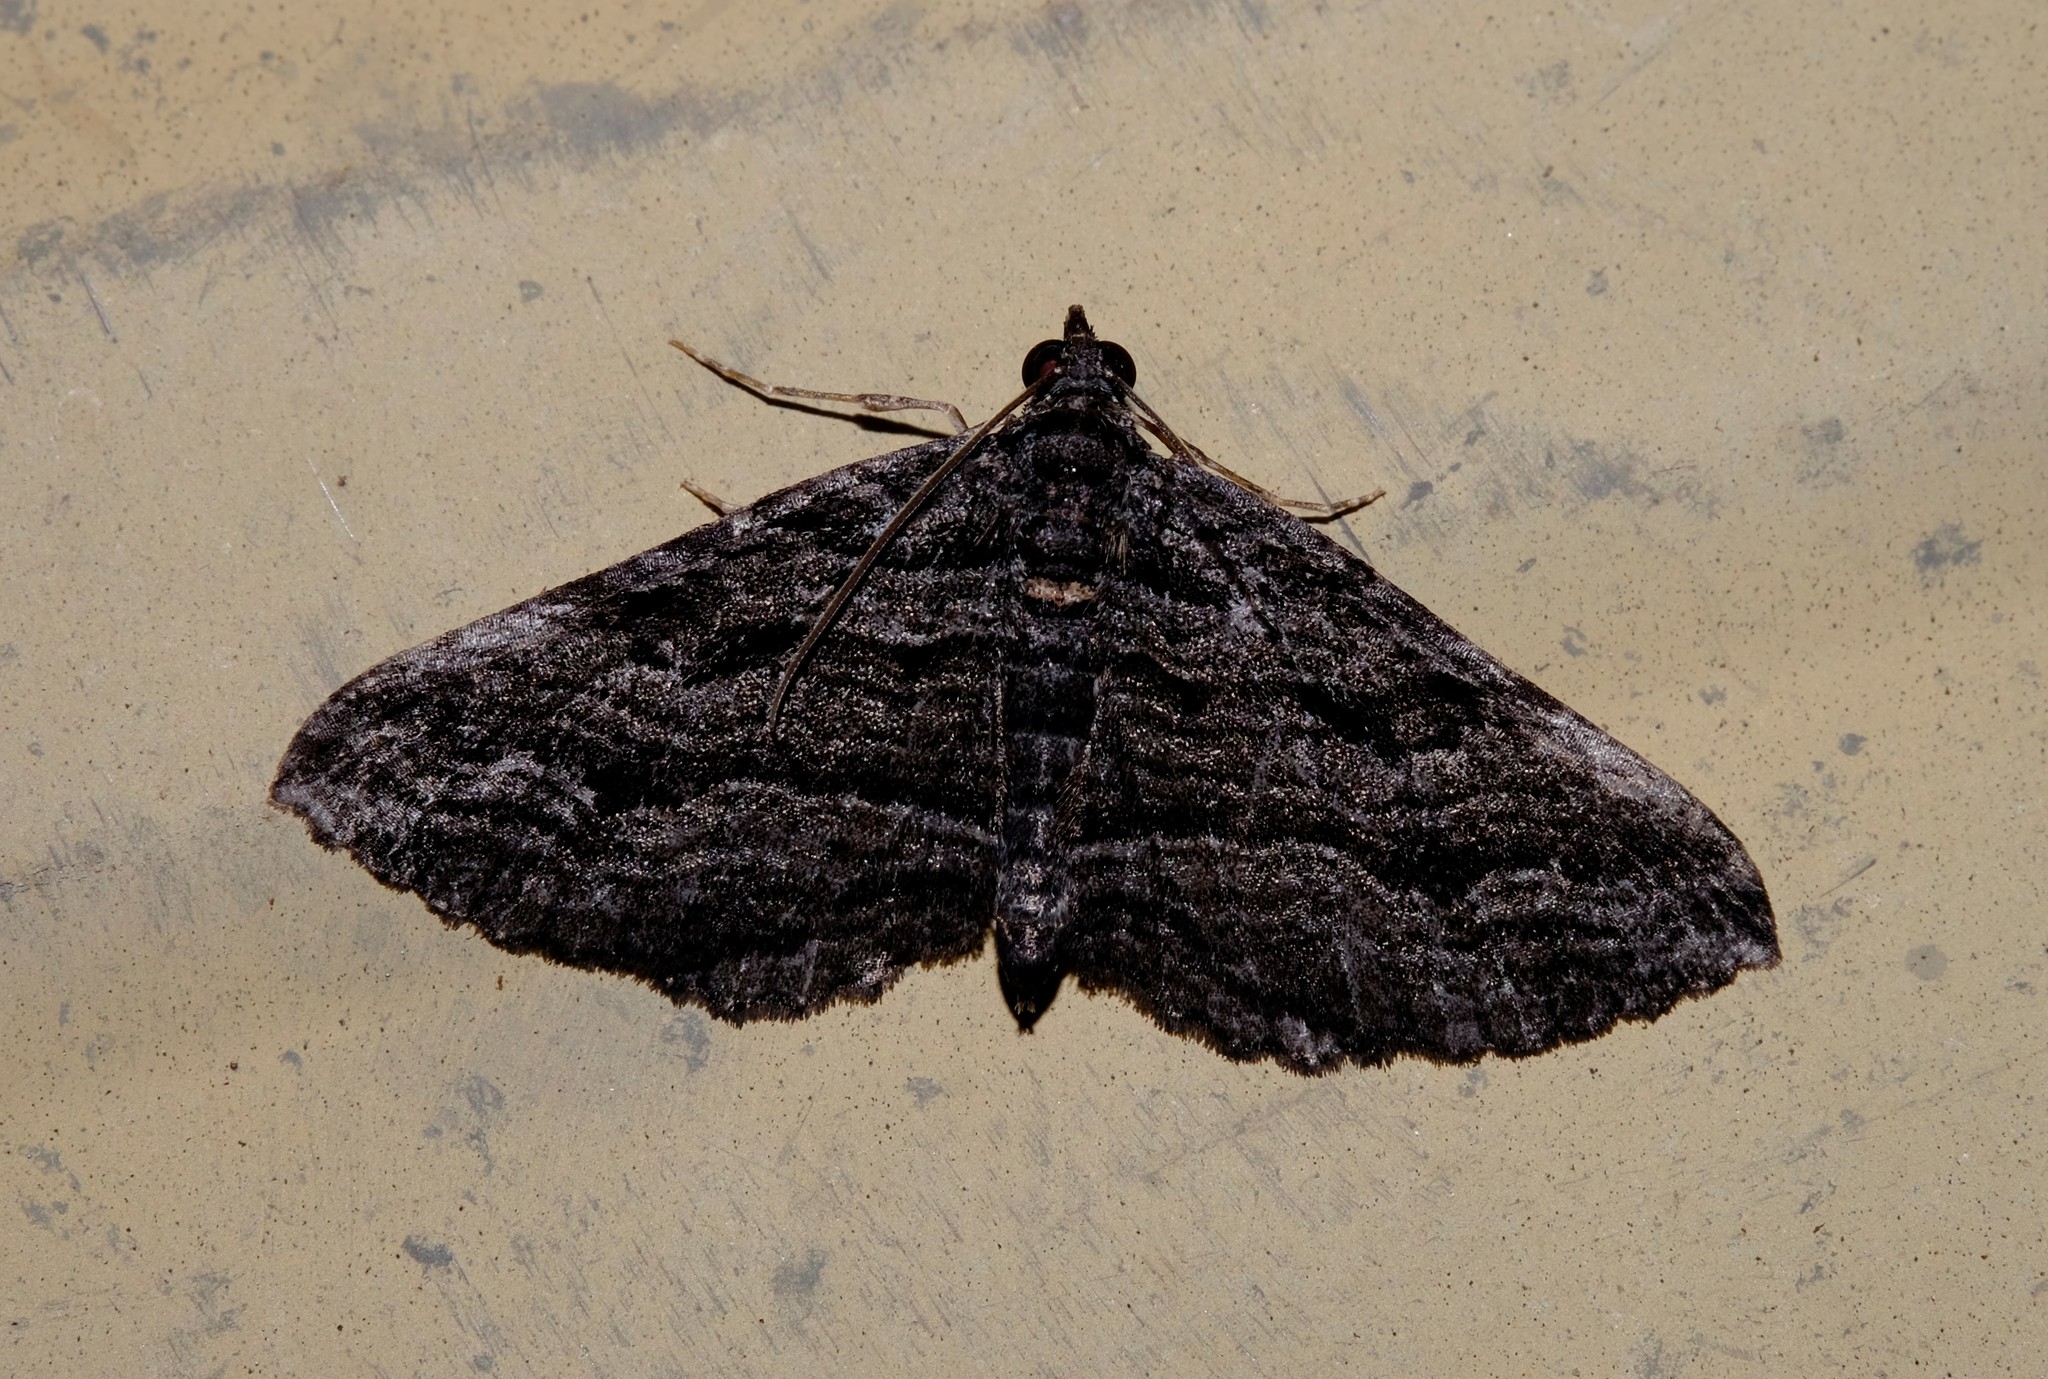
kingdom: Animalia
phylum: Arthropoda
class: Insecta
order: Lepidoptera
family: Geometridae
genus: Chrysolarentia
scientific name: Chrysolarentia severata
